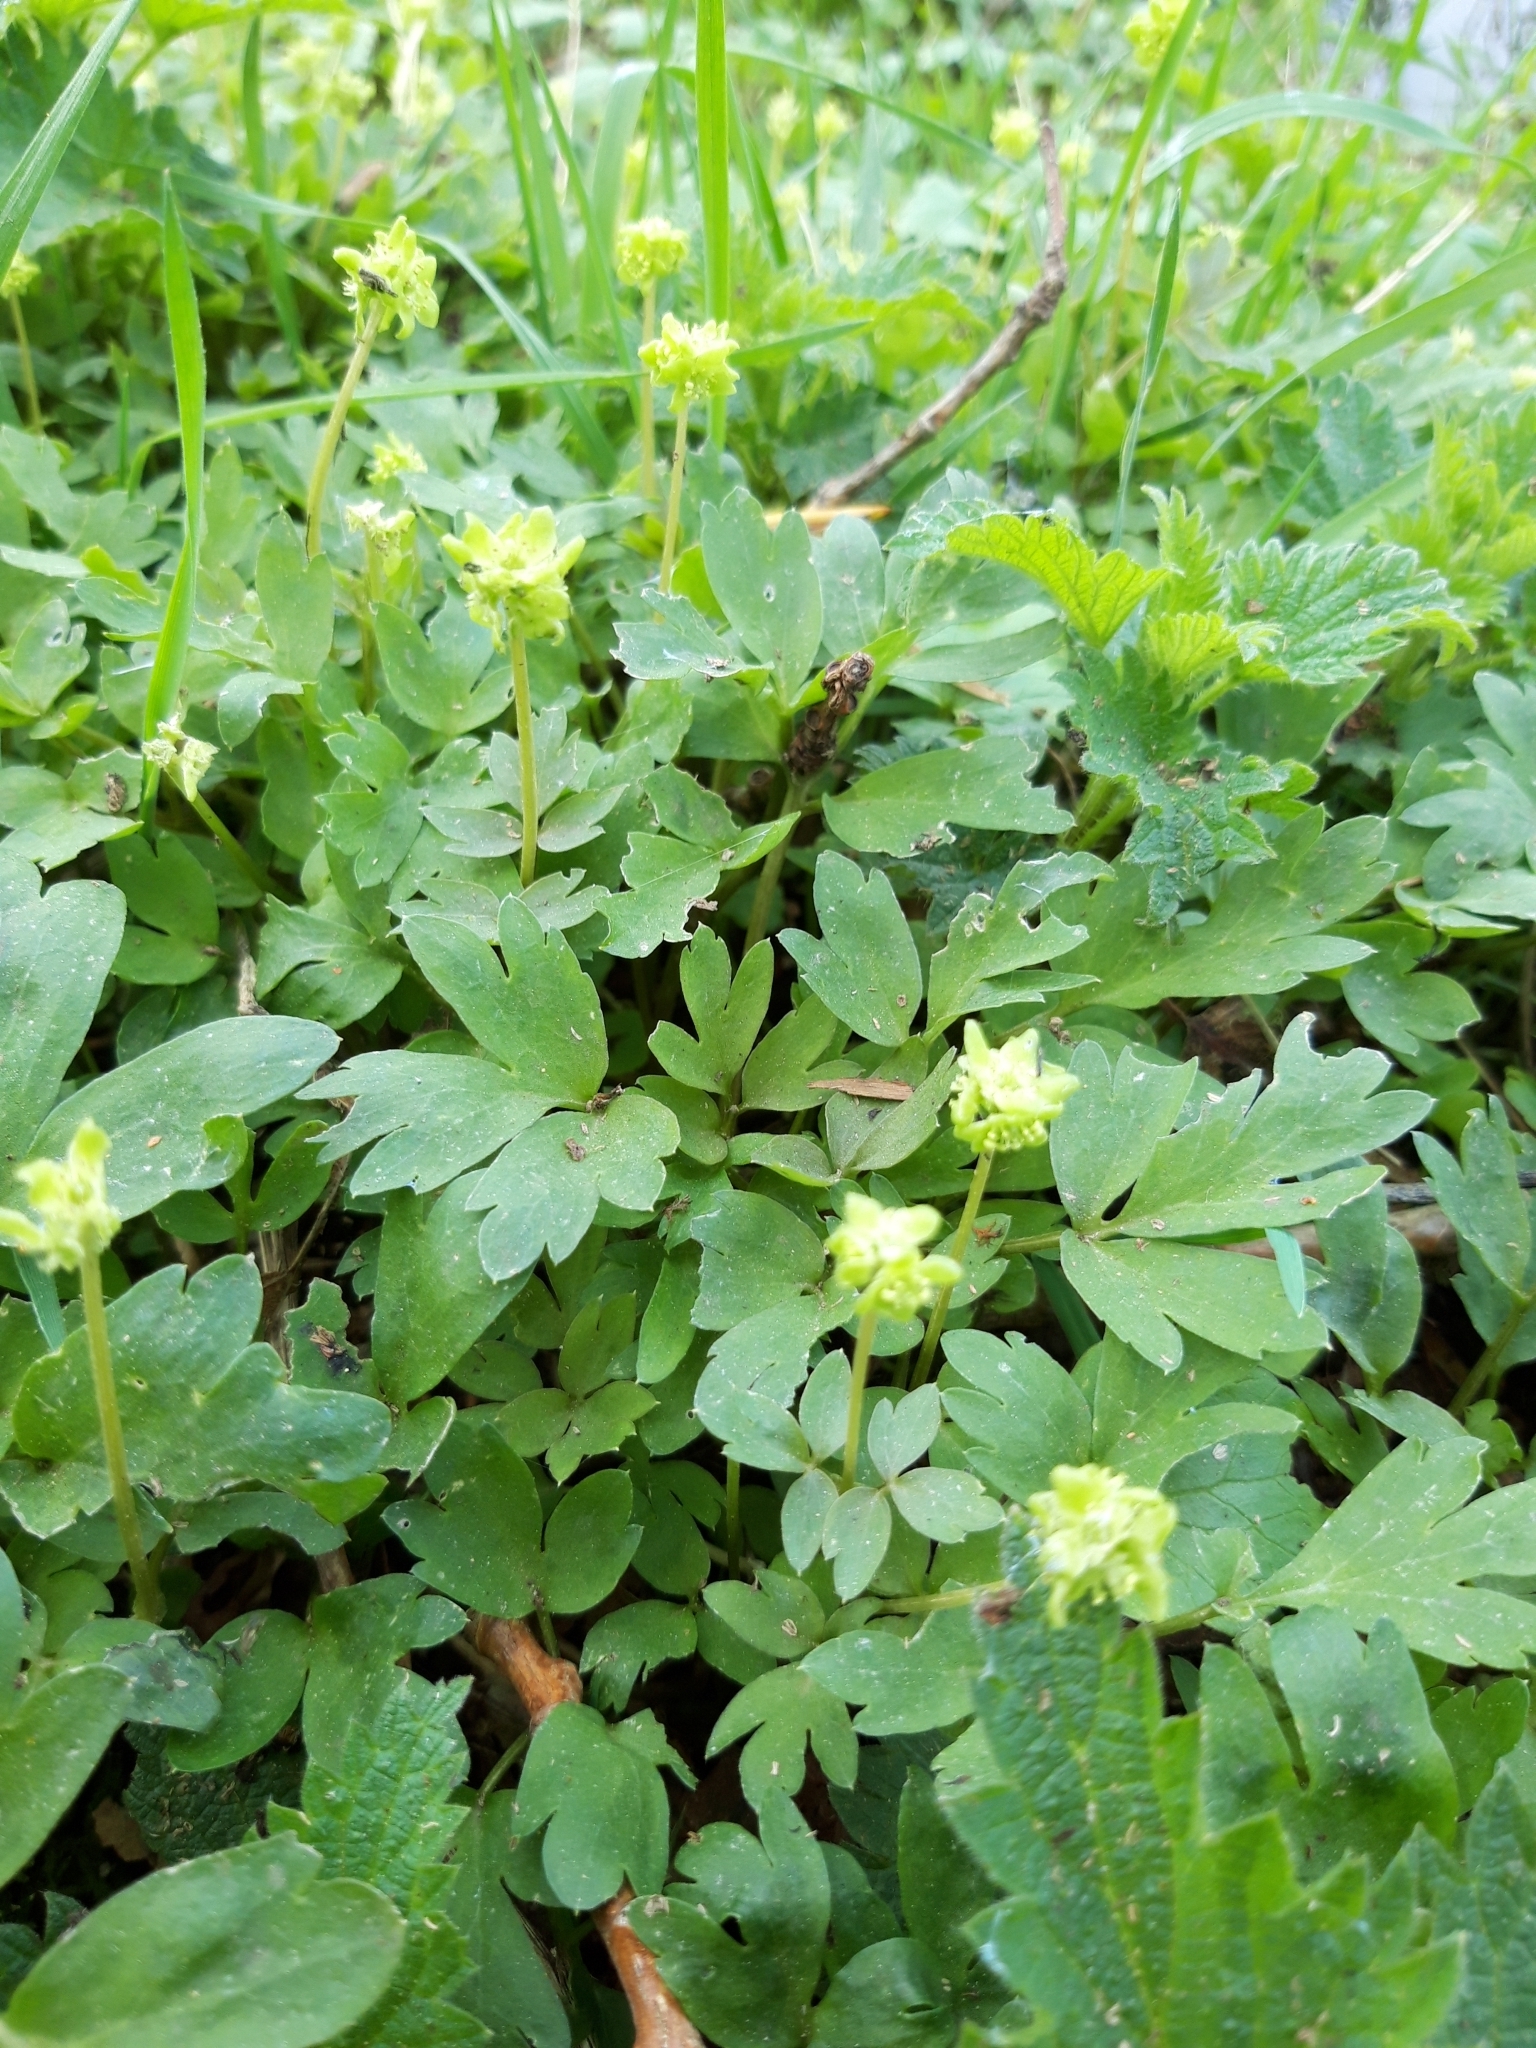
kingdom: Plantae
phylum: Tracheophyta
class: Magnoliopsida
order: Dipsacales
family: Viburnaceae
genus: Adoxa
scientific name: Adoxa moschatellina
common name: Moschatel
